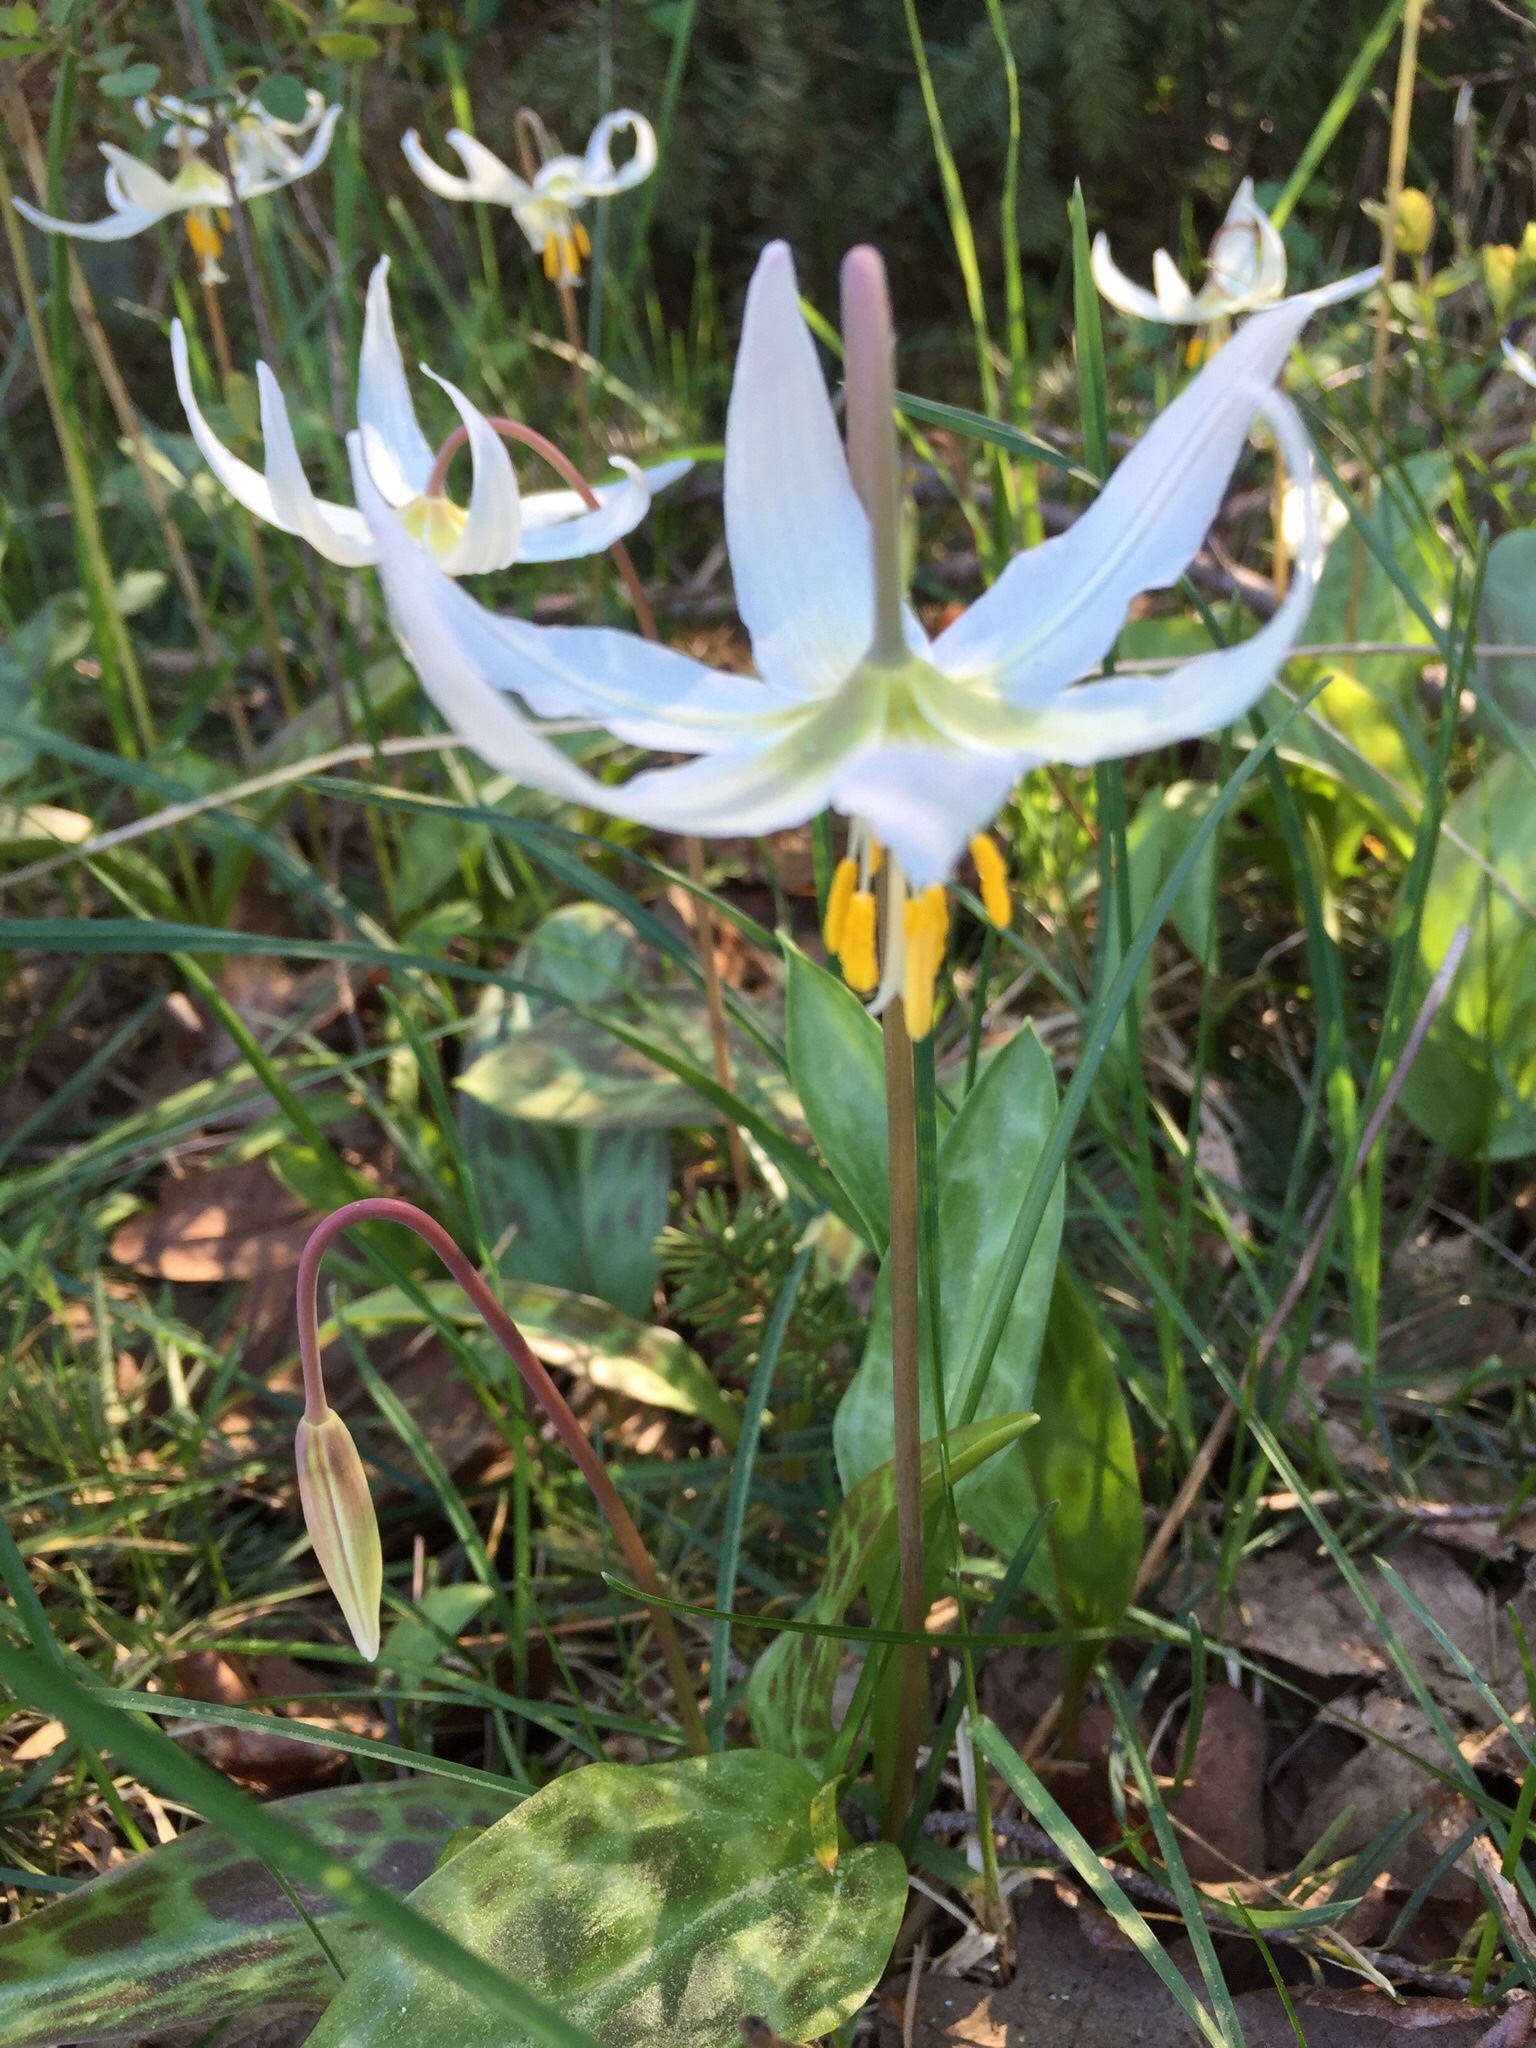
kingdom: Plantae
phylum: Tracheophyta
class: Liliopsida
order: Liliales
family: Liliaceae
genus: Erythronium
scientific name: Erythronium oregonum
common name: Giant adder's-tongue
